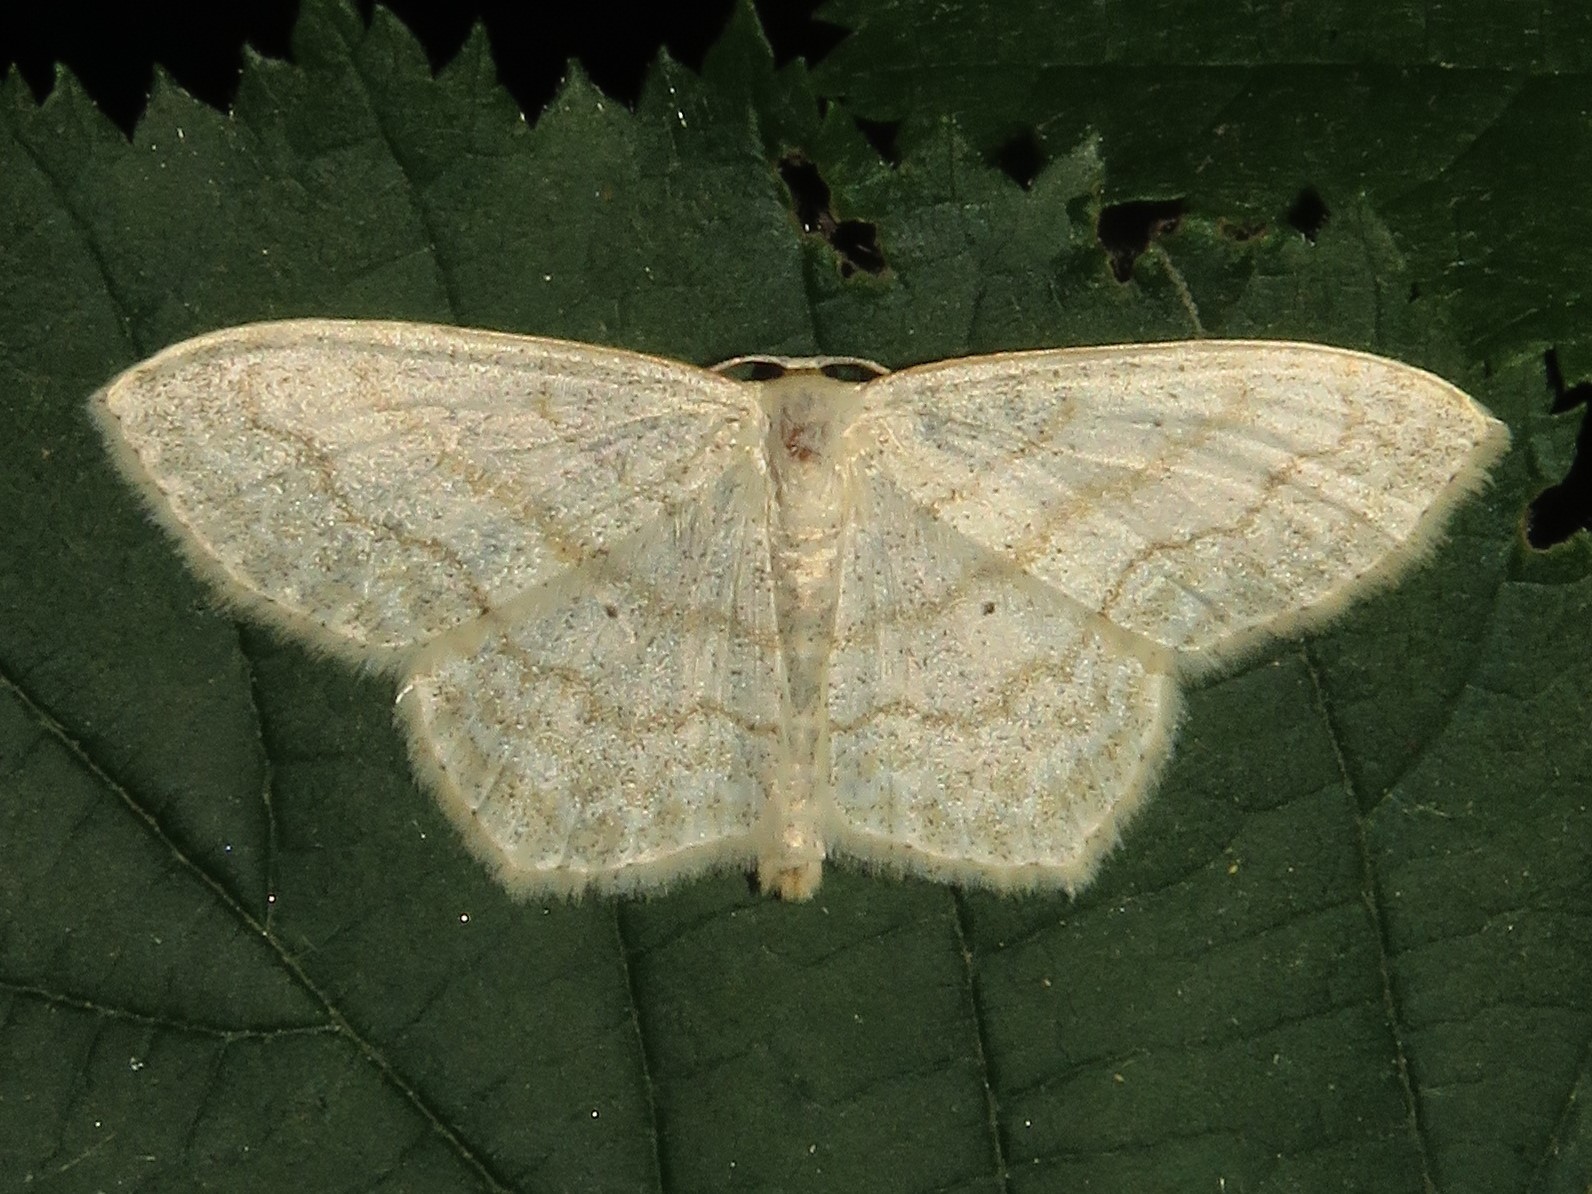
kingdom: Animalia
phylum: Arthropoda
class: Insecta
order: Lepidoptera
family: Geometridae
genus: Scopula
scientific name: Scopula limboundata
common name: Large lace border
